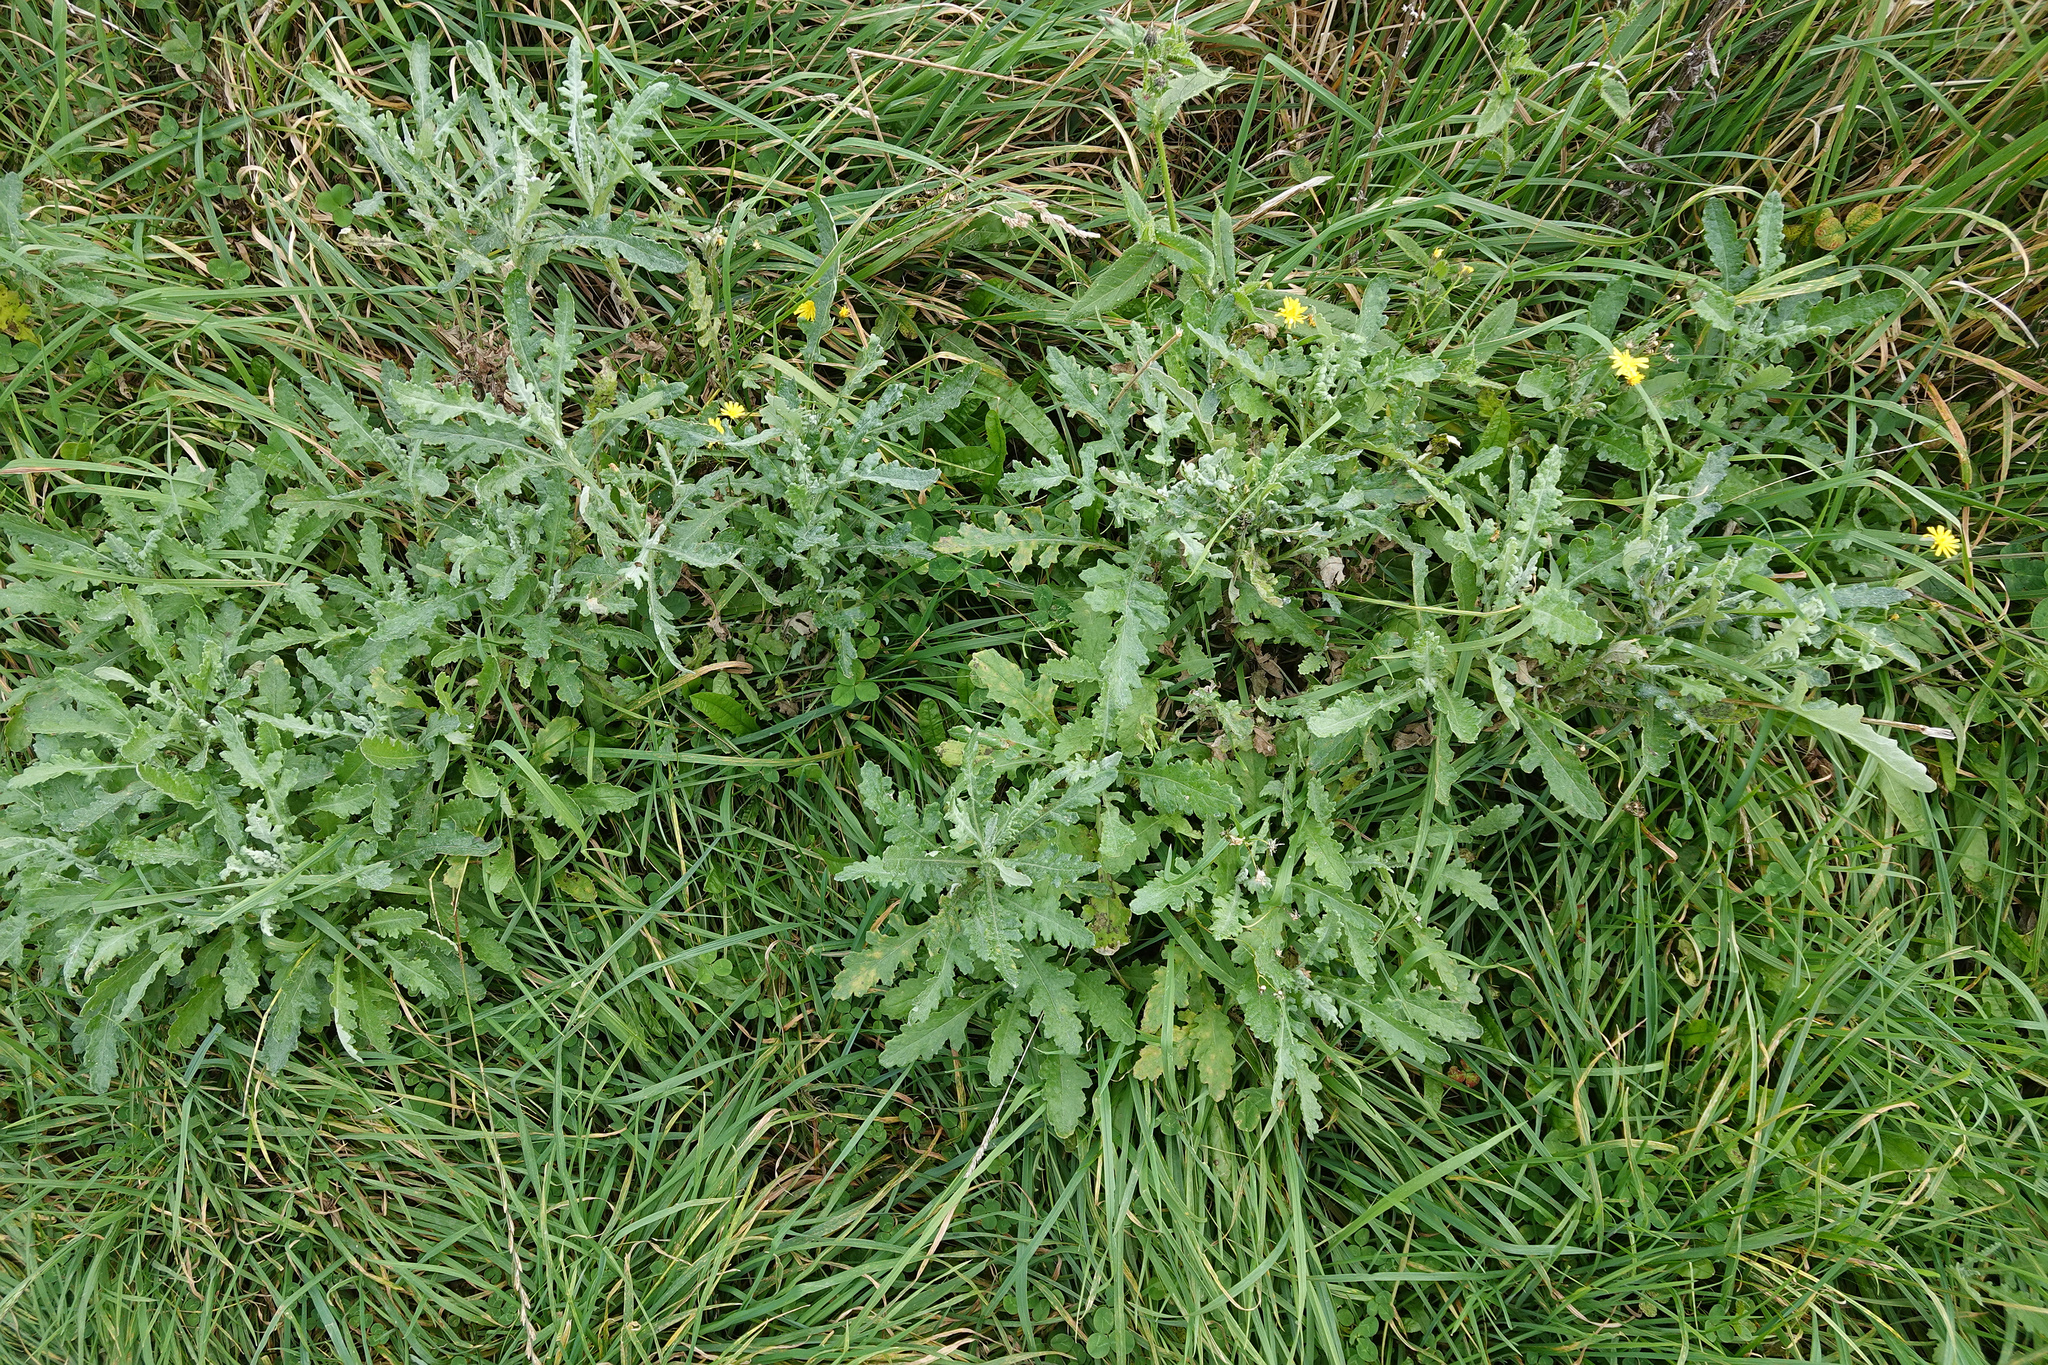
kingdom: Plantae
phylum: Tracheophyta
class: Magnoliopsida
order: Asterales
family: Asteraceae
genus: Senecio
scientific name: Senecio glomeratus
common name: Cutleaf burnweed
